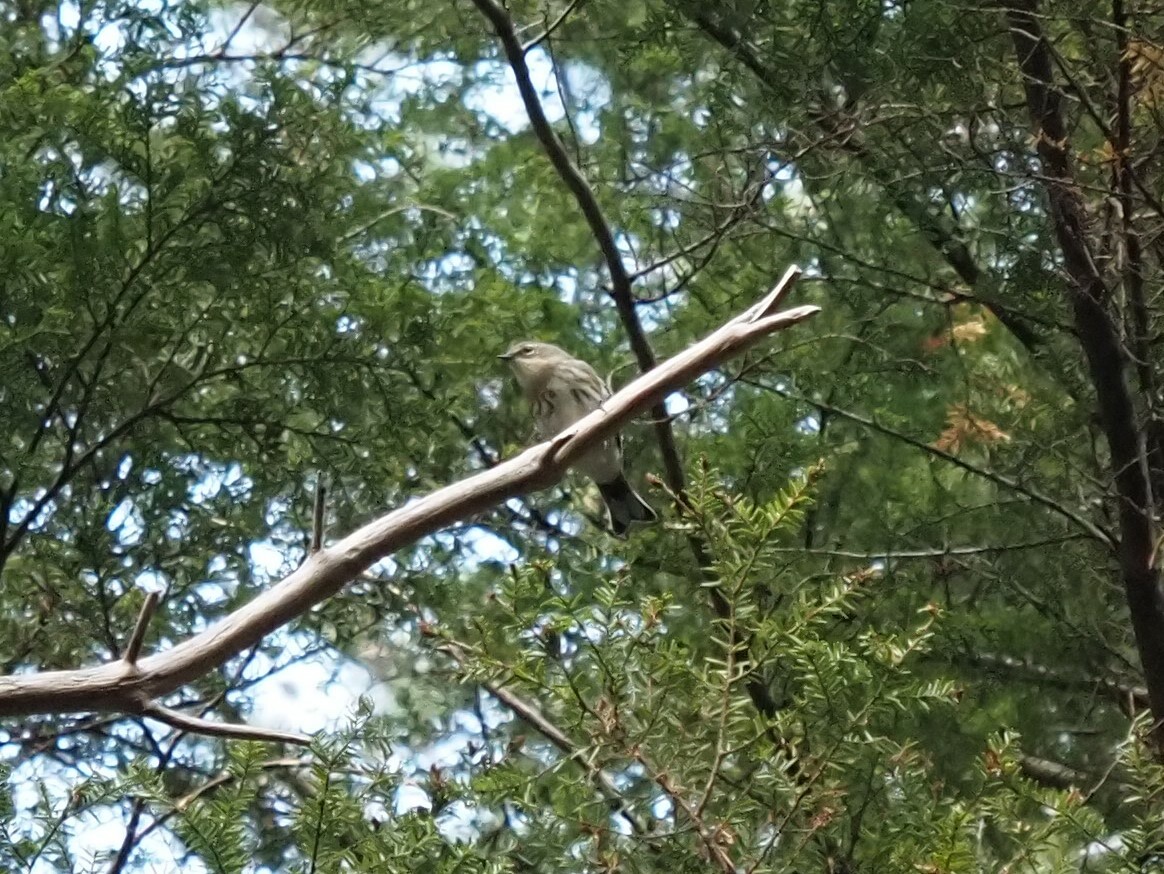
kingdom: Animalia
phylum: Chordata
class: Aves
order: Passeriformes
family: Parulidae
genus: Setophaga
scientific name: Setophaga coronata
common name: Myrtle warbler
